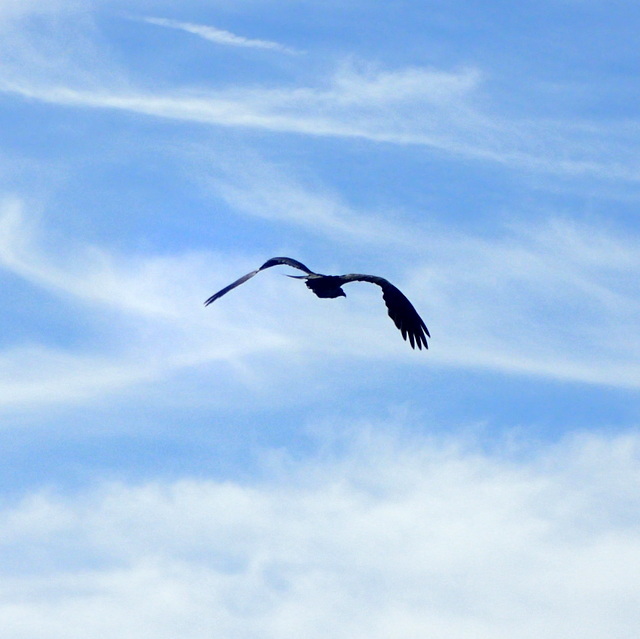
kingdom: Animalia
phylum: Chordata
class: Aves
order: Accipitriformes
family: Pandionidae
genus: Pandion
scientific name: Pandion haliaetus
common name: Osprey
